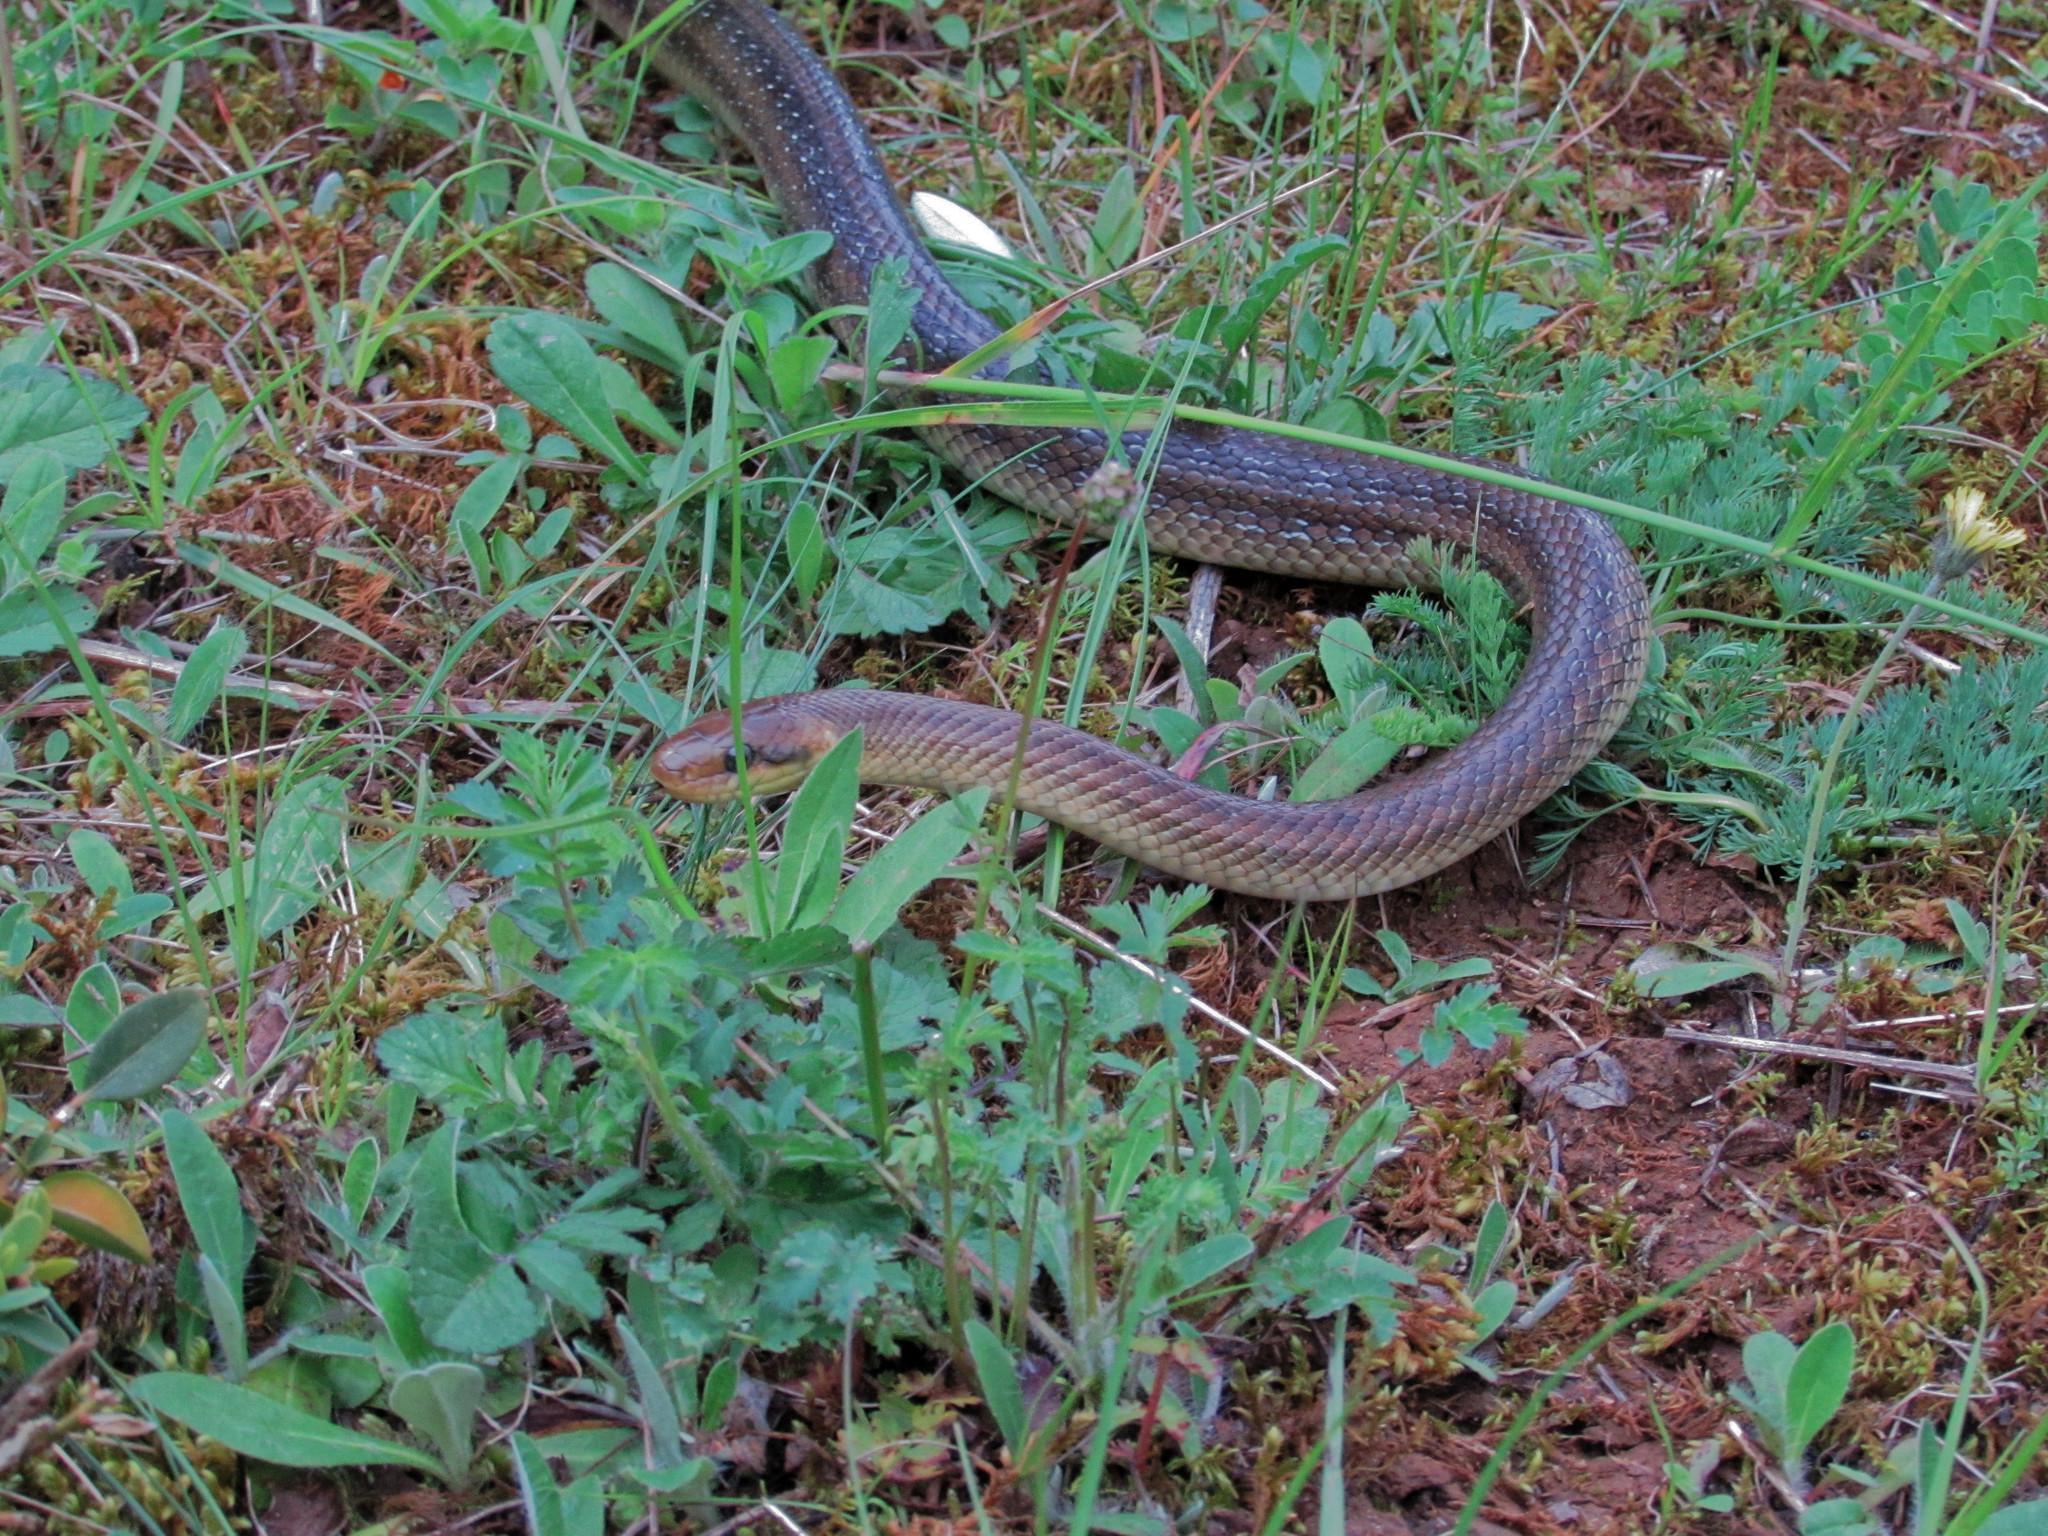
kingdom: Animalia
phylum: Chordata
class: Squamata
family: Colubridae
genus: Zamenis
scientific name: Zamenis longissimus
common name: Aesculapean snake
